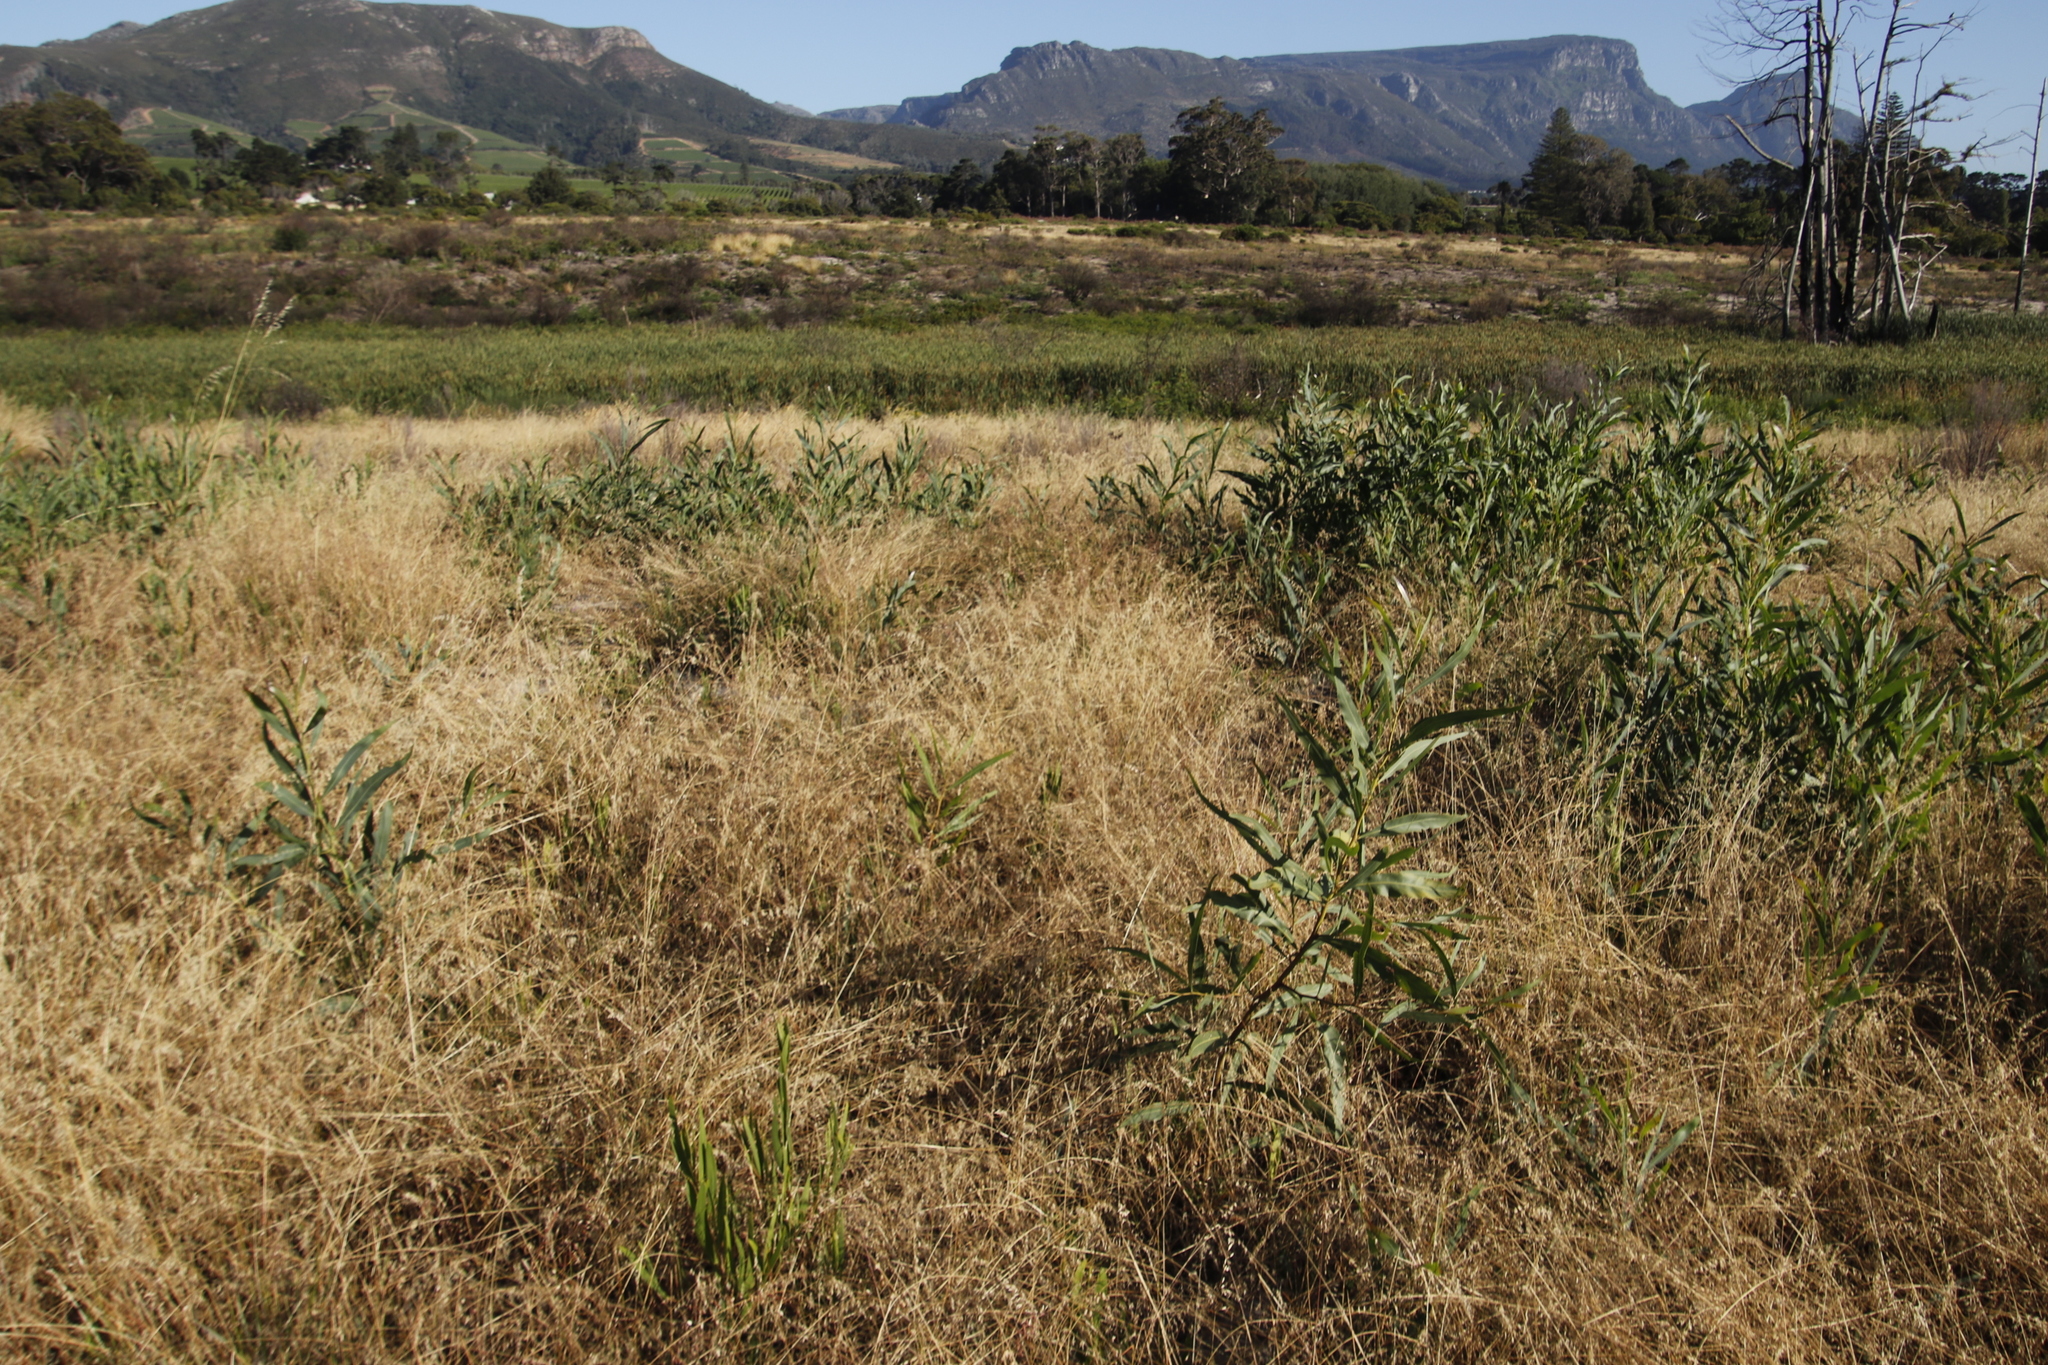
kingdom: Plantae
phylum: Tracheophyta
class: Magnoliopsida
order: Fabales
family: Fabaceae
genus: Acacia
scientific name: Acacia saligna
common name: Orange wattle
